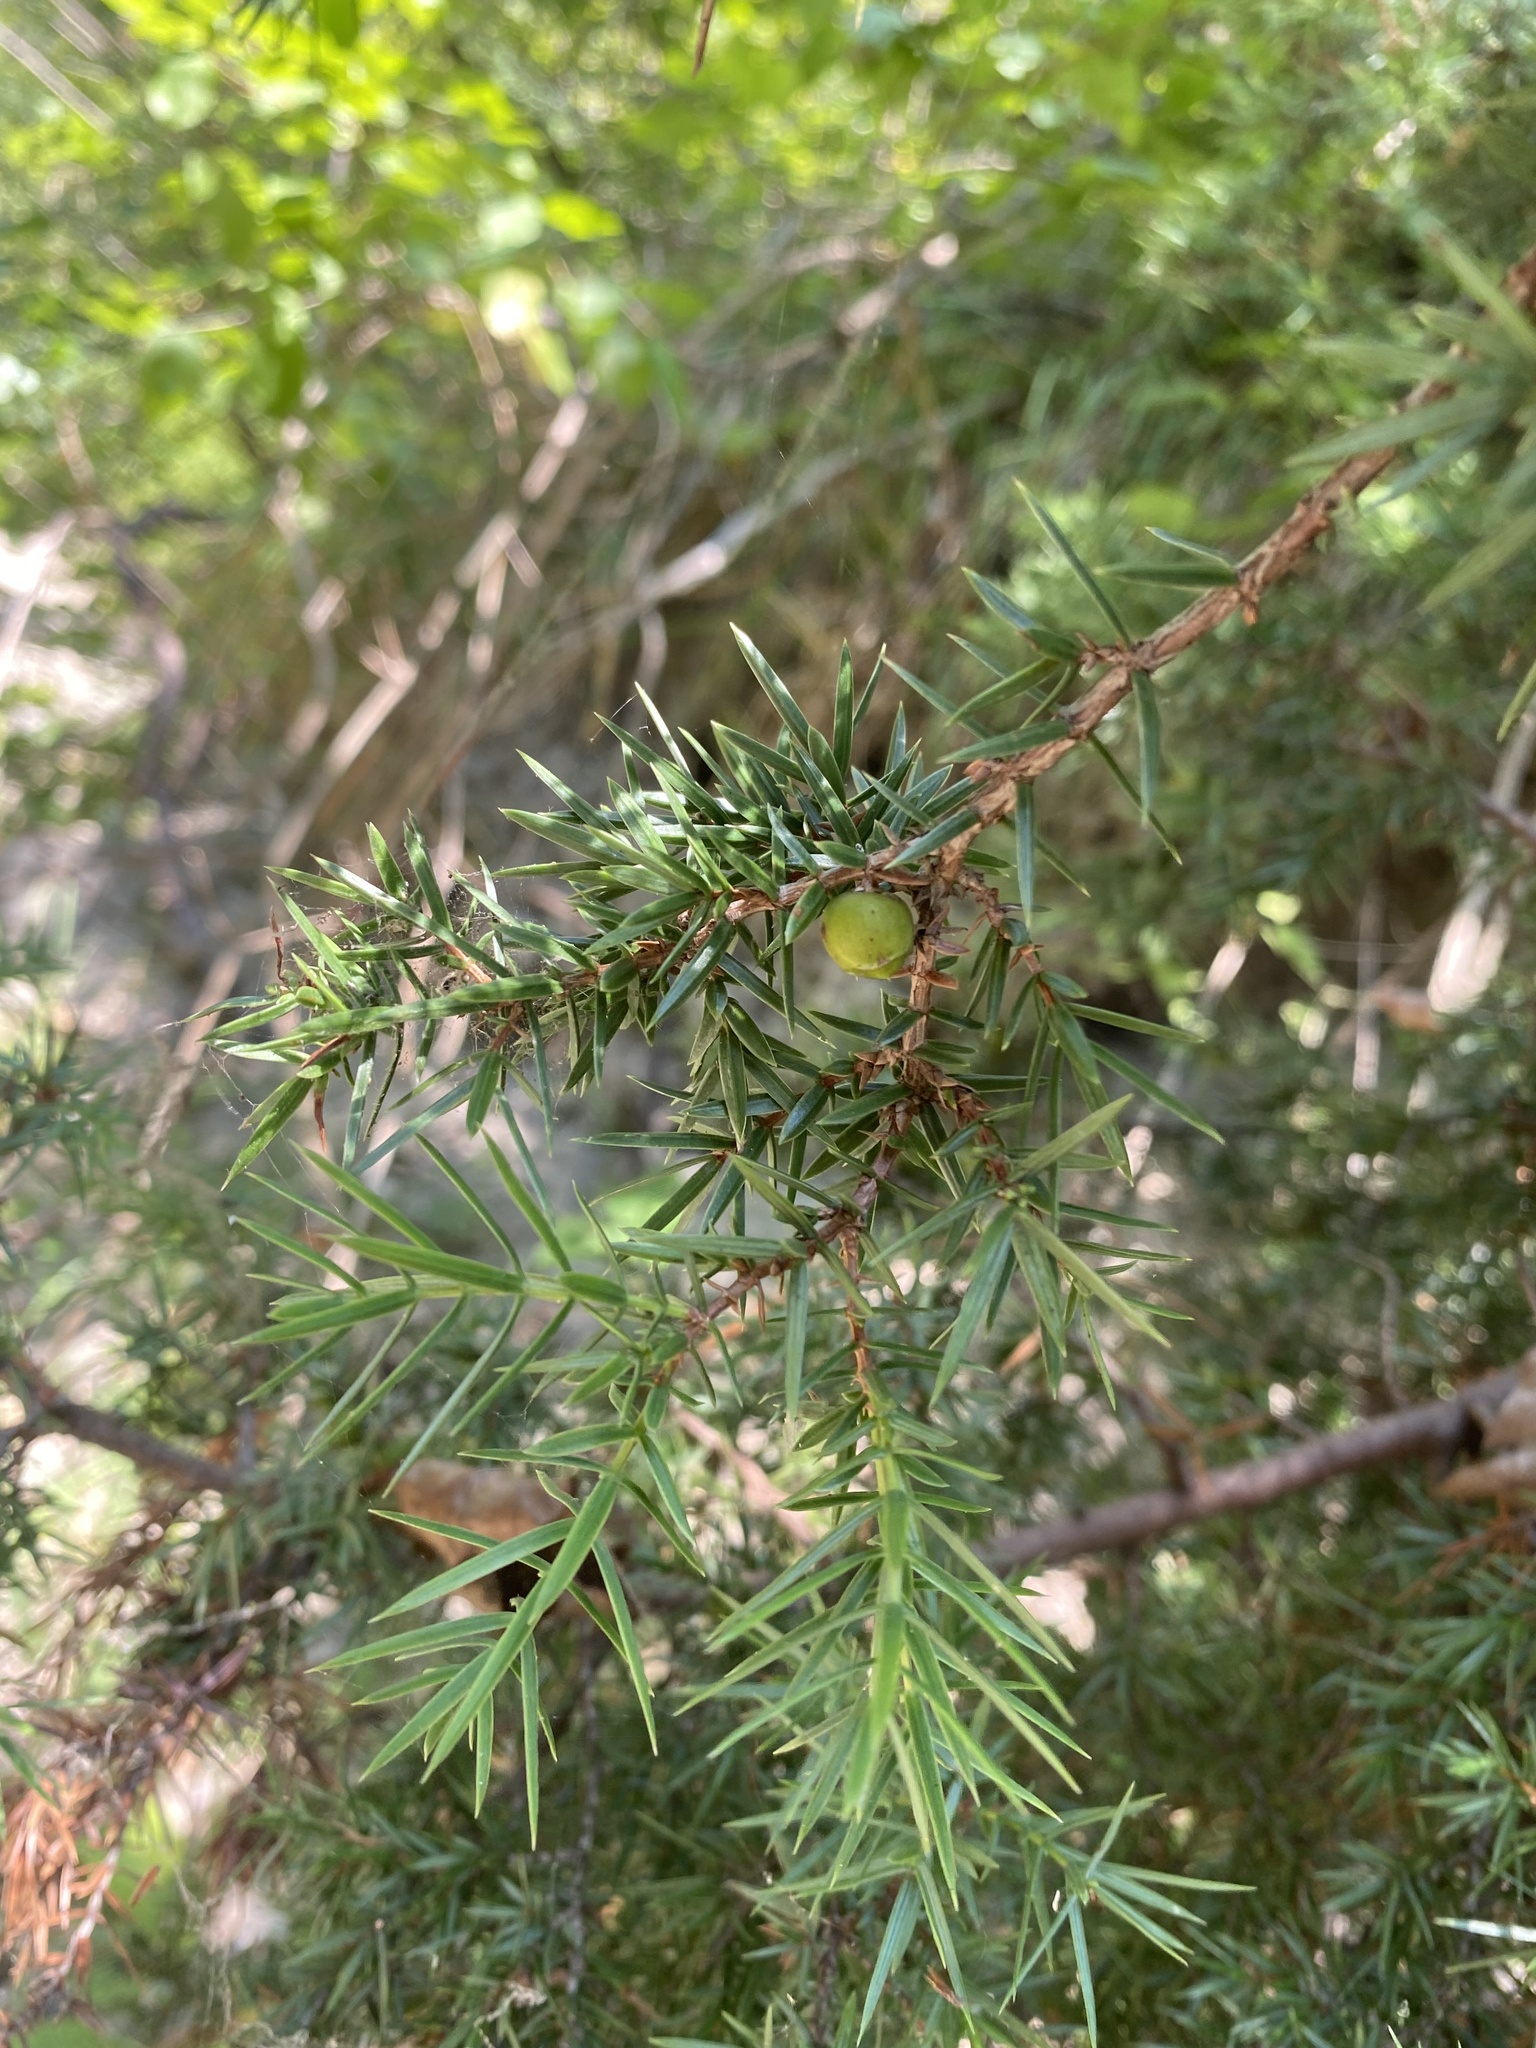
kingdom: Plantae
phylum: Tracheophyta
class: Pinopsida
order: Pinales
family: Cupressaceae
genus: Juniperus
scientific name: Juniperus oxycedrus
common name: Prickly juniper
